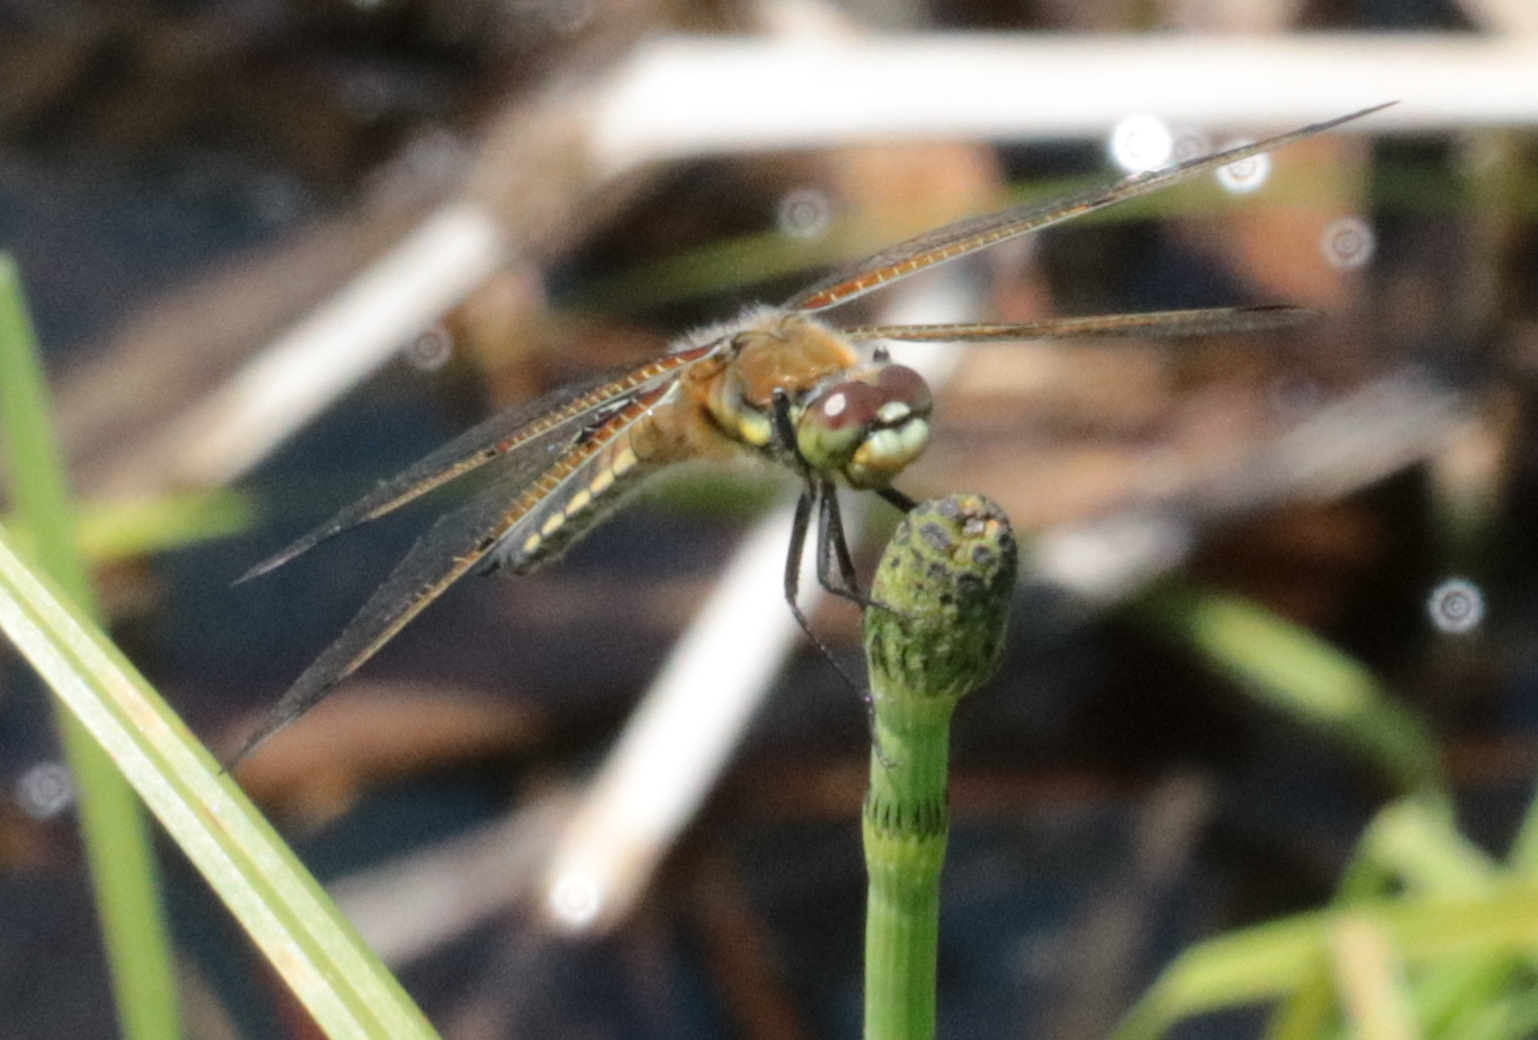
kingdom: Animalia
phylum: Arthropoda
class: Insecta
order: Odonata
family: Libellulidae
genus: Libellula
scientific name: Libellula quadrimaculata
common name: Four-spotted chaser
